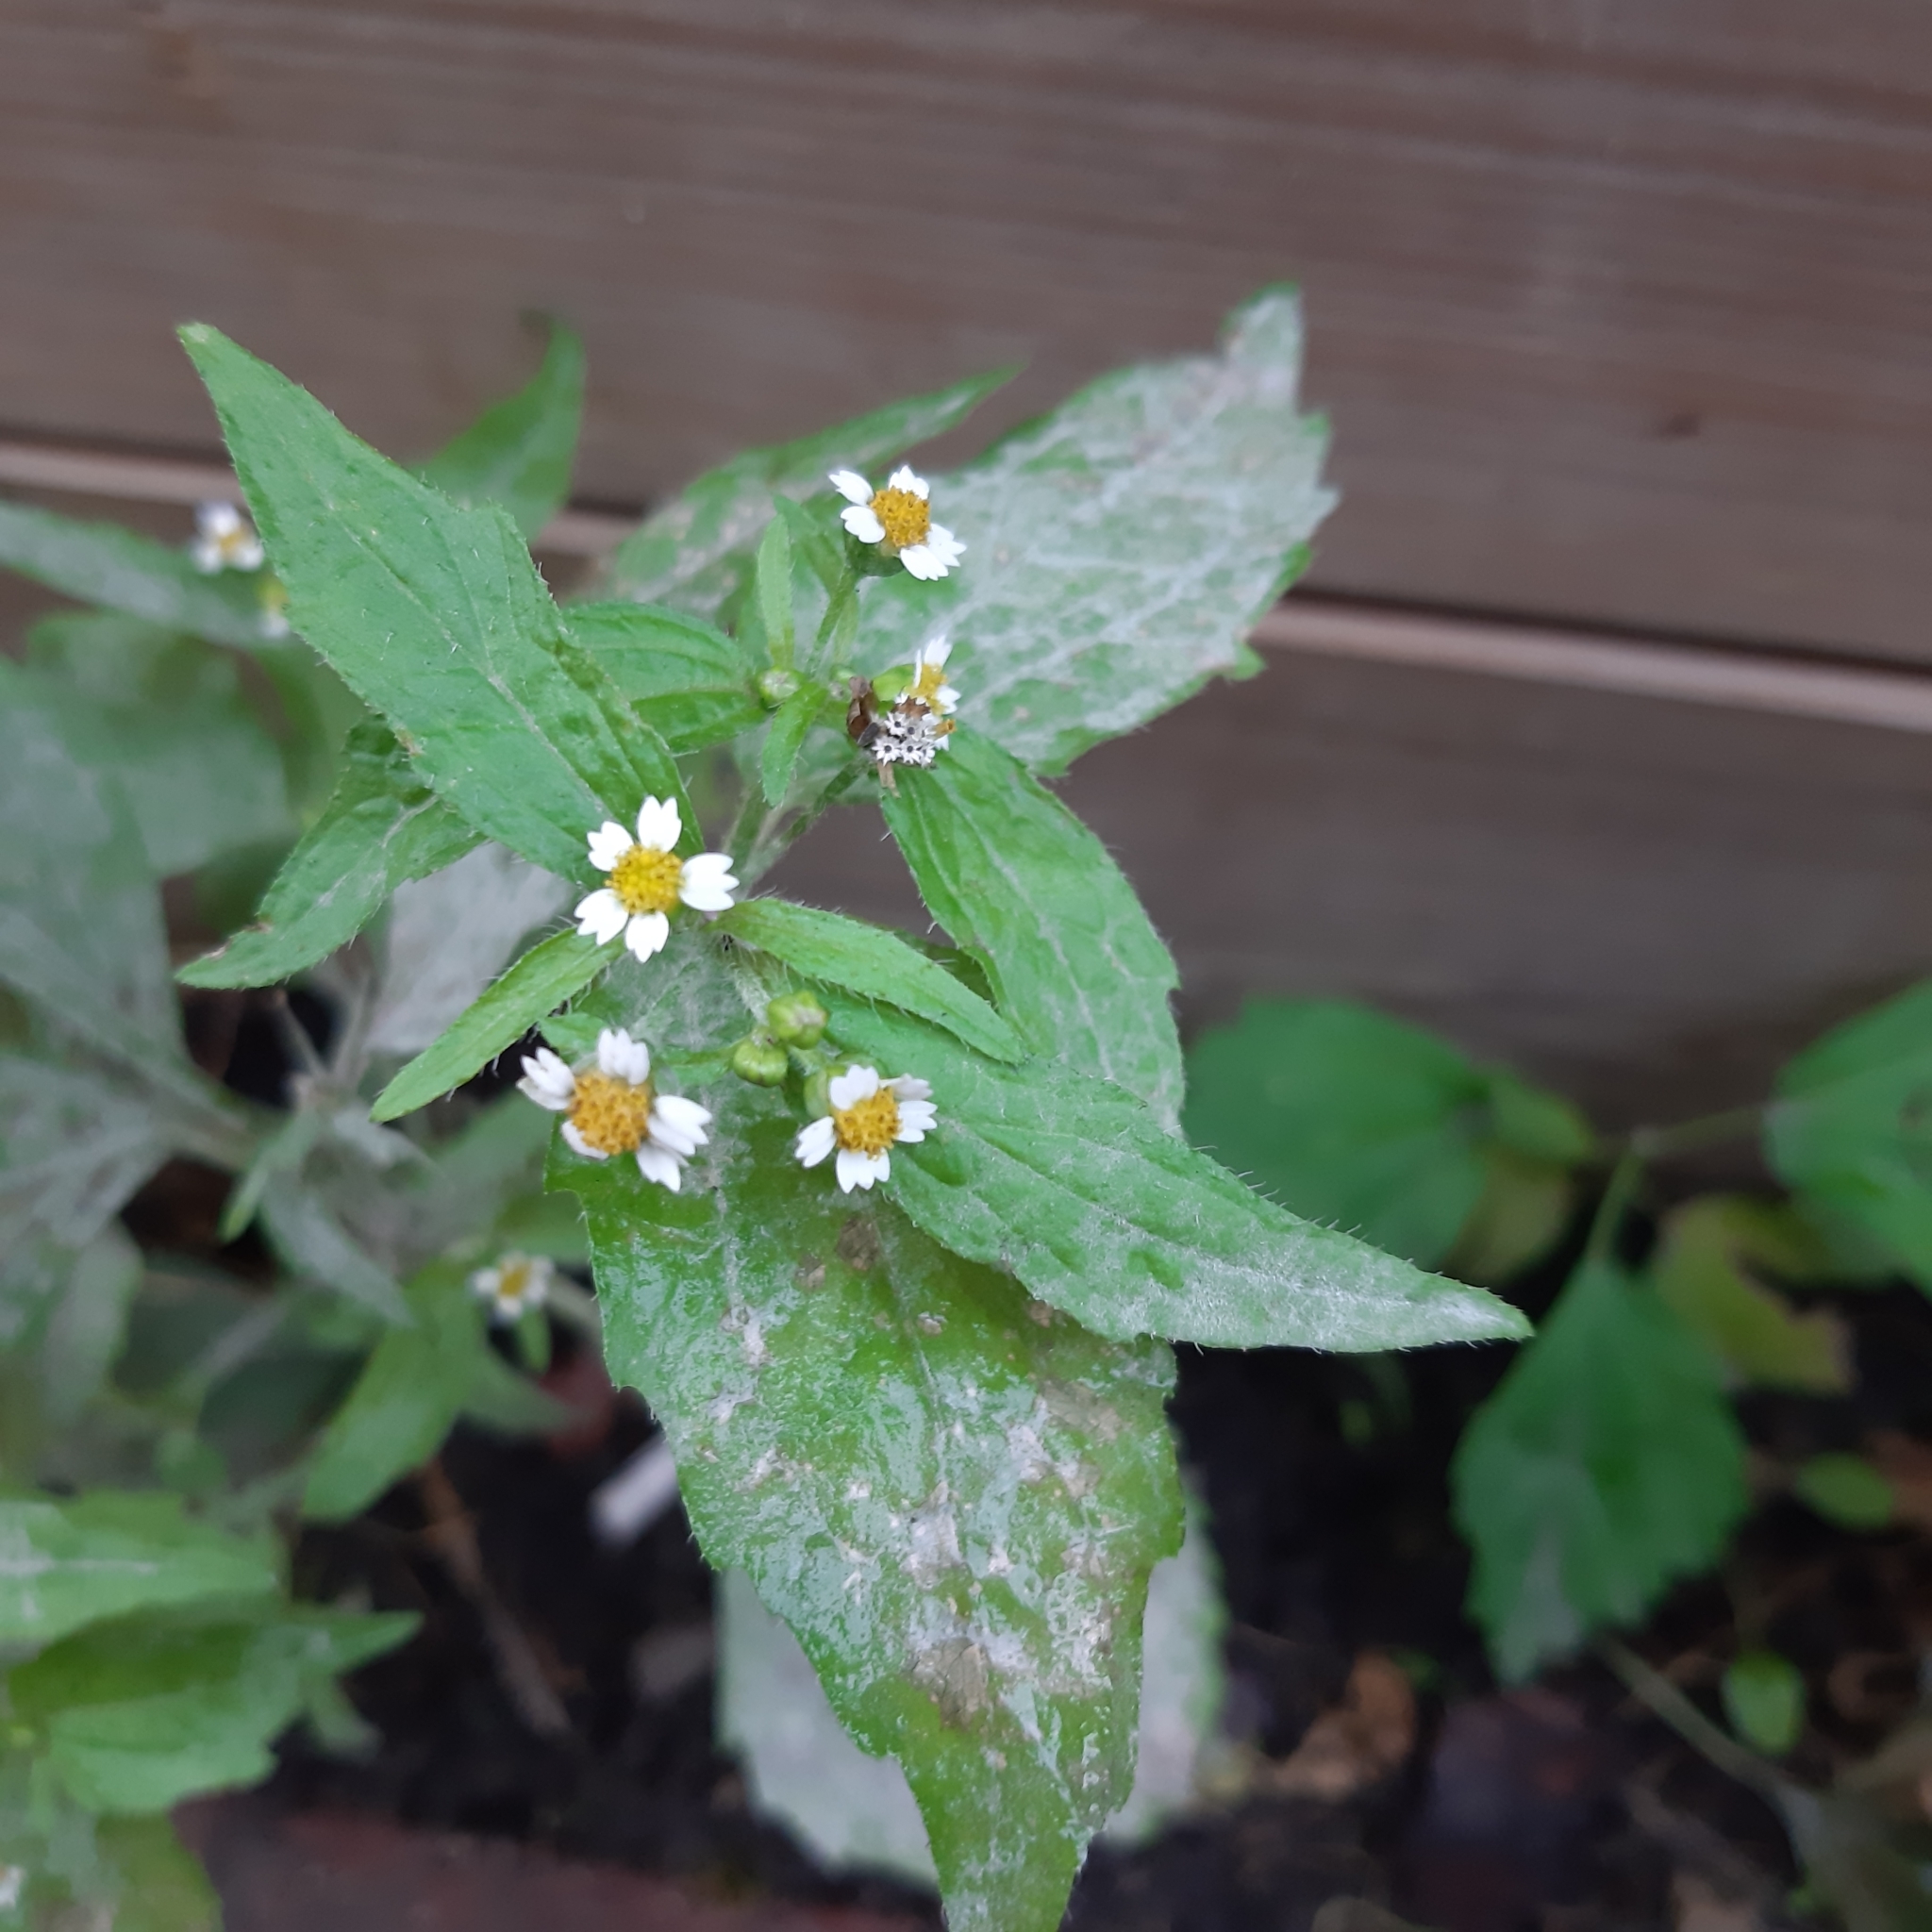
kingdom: Plantae
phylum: Tracheophyta
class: Magnoliopsida
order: Asterales
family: Asteraceae
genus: Galinsoga
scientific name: Galinsoga quadriradiata
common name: Shaggy soldier
